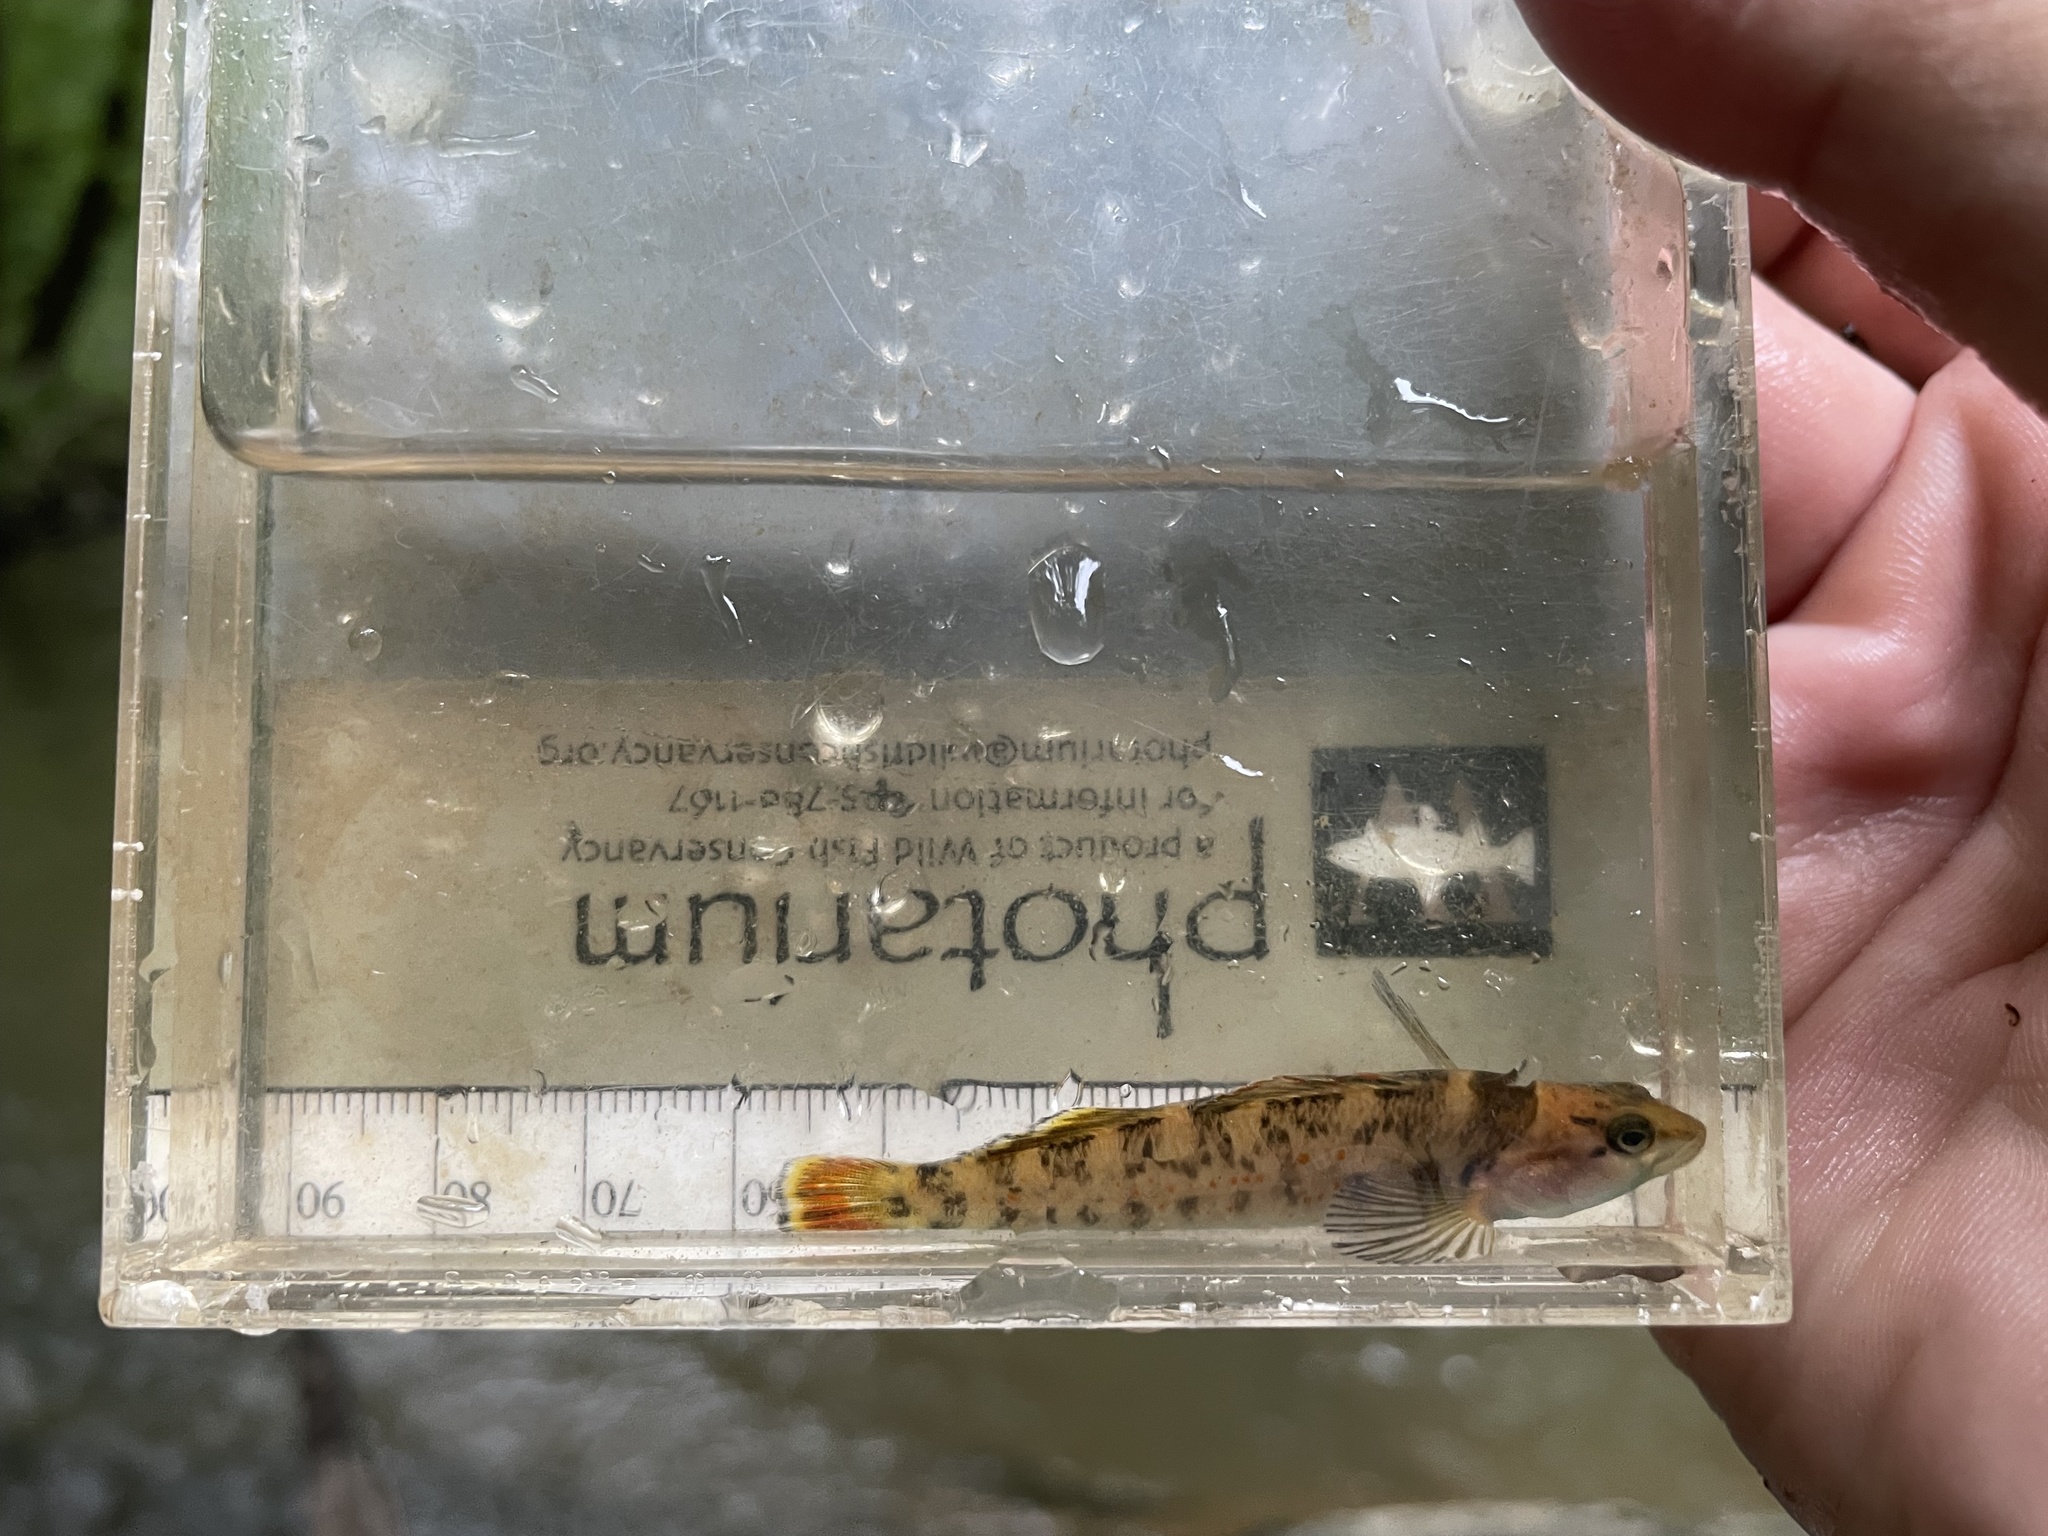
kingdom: Animalia
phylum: Chordata
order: Perciformes
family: Percidae
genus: Etheostoma
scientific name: Etheostoma jordani
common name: Greenbreast darter
